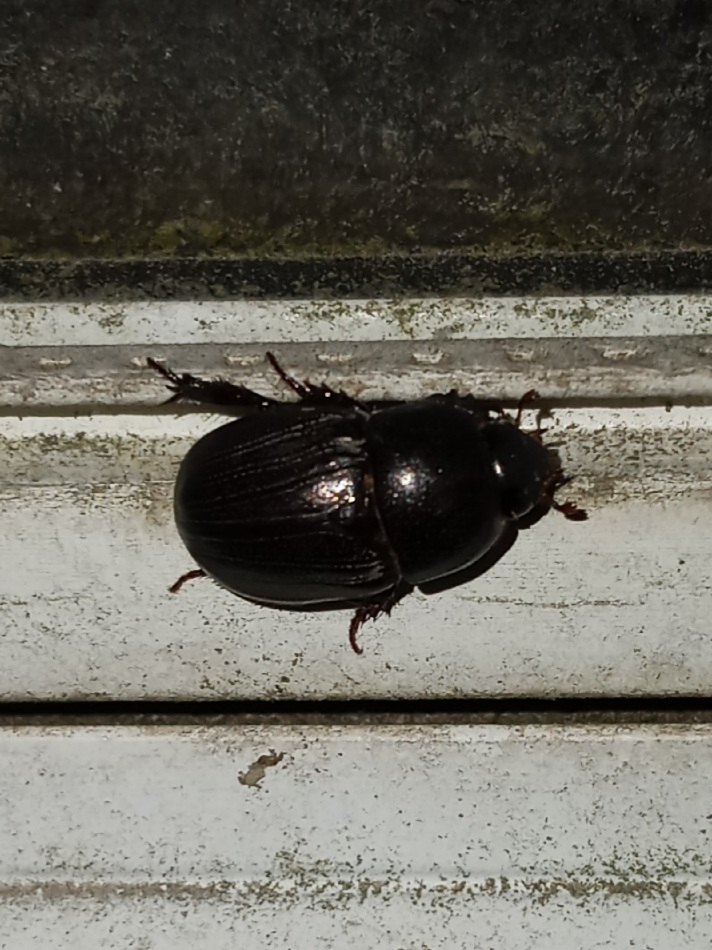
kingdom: Animalia
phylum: Arthropoda
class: Insecta
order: Coleoptera
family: Scarabaeidae
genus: Euetheola
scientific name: Euetheola humilis
